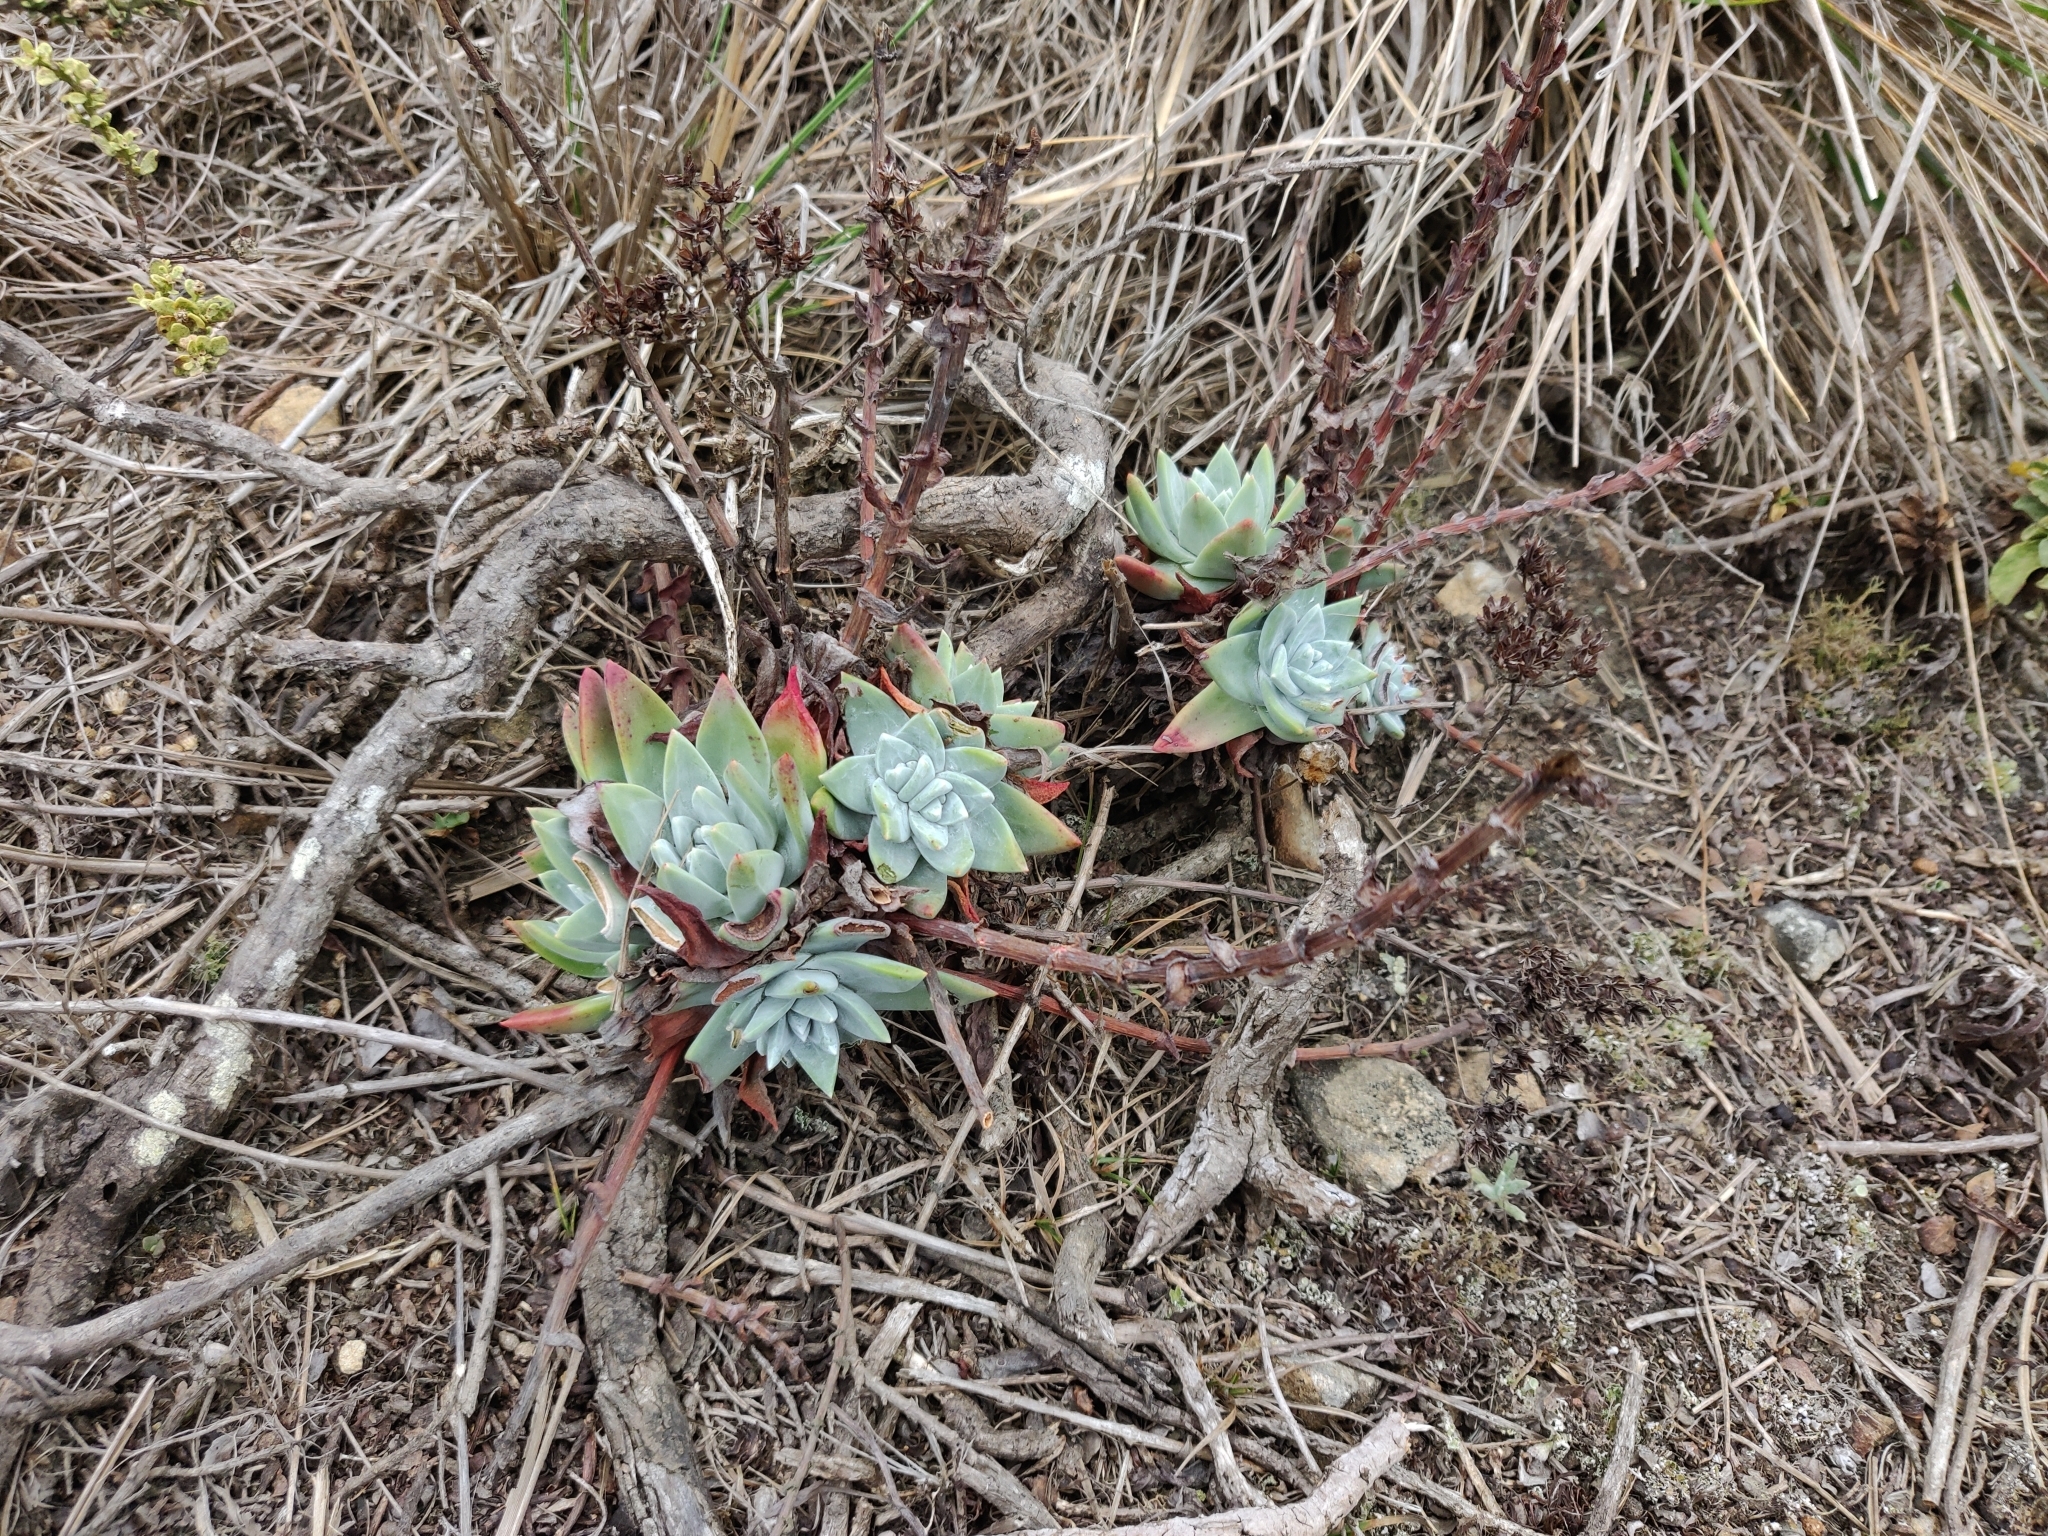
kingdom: Plantae
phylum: Tracheophyta
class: Magnoliopsida
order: Saxifragales
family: Crassulaceae
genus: Dudleya
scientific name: Dudleya farinosa
